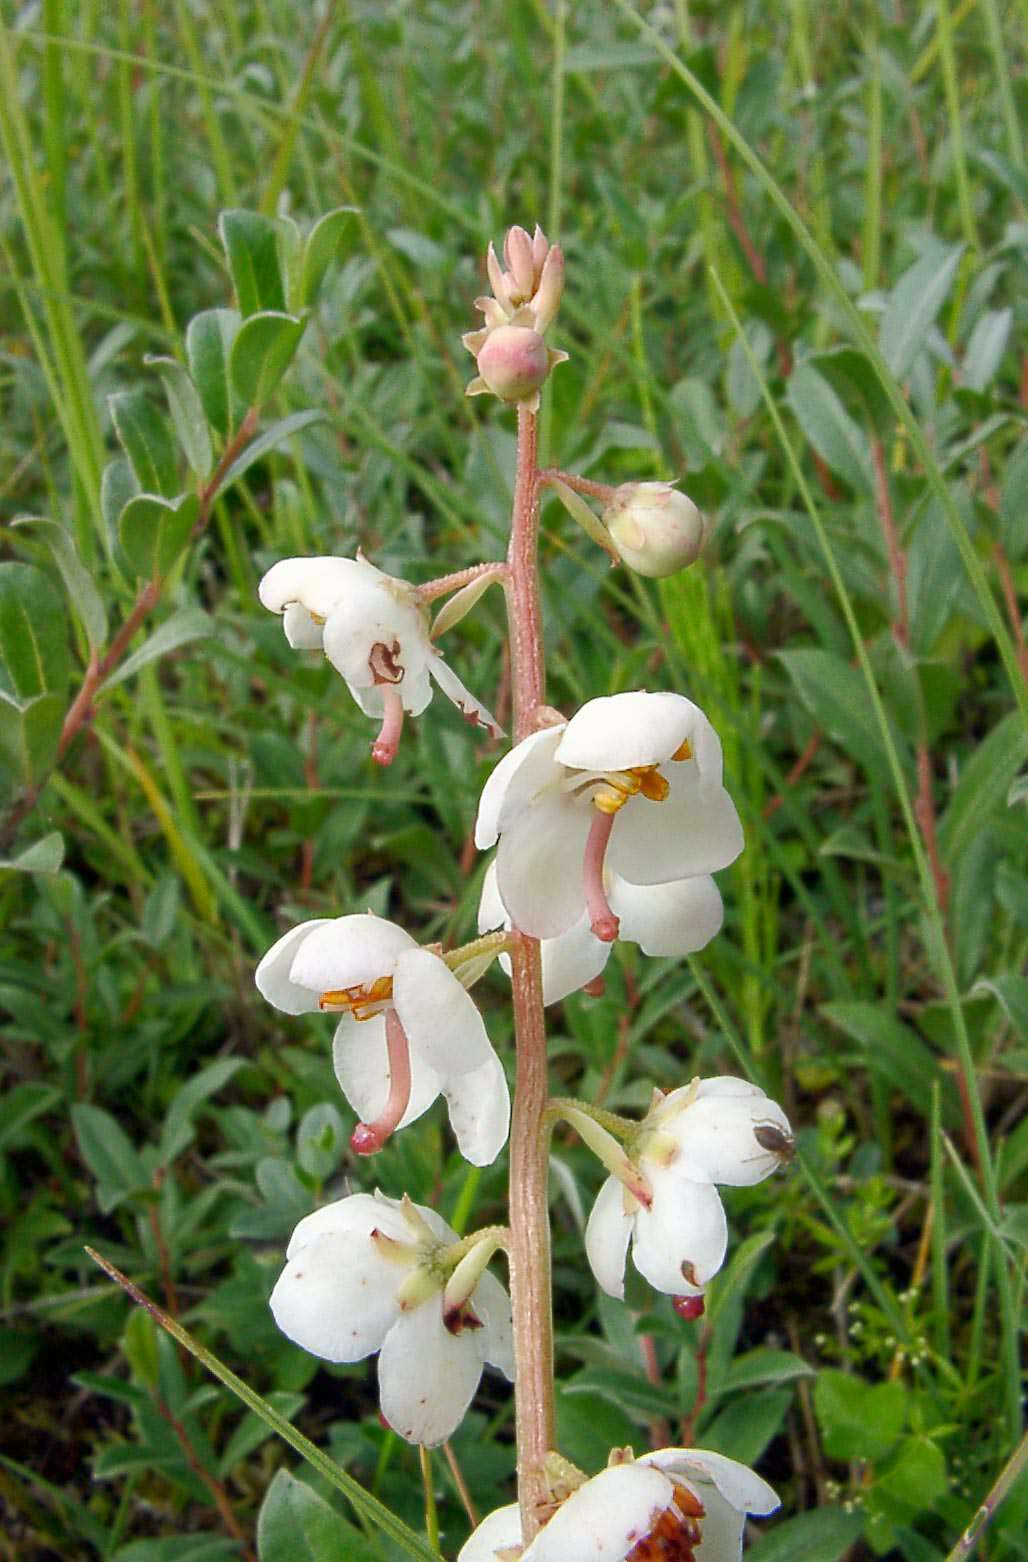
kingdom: Plantae
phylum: Tracheophyta
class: Magnoliopsida
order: Ericales
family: Ericaceae
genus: Pyrola
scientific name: Pyrola rotundifolia
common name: Round-leaved wintergreen
